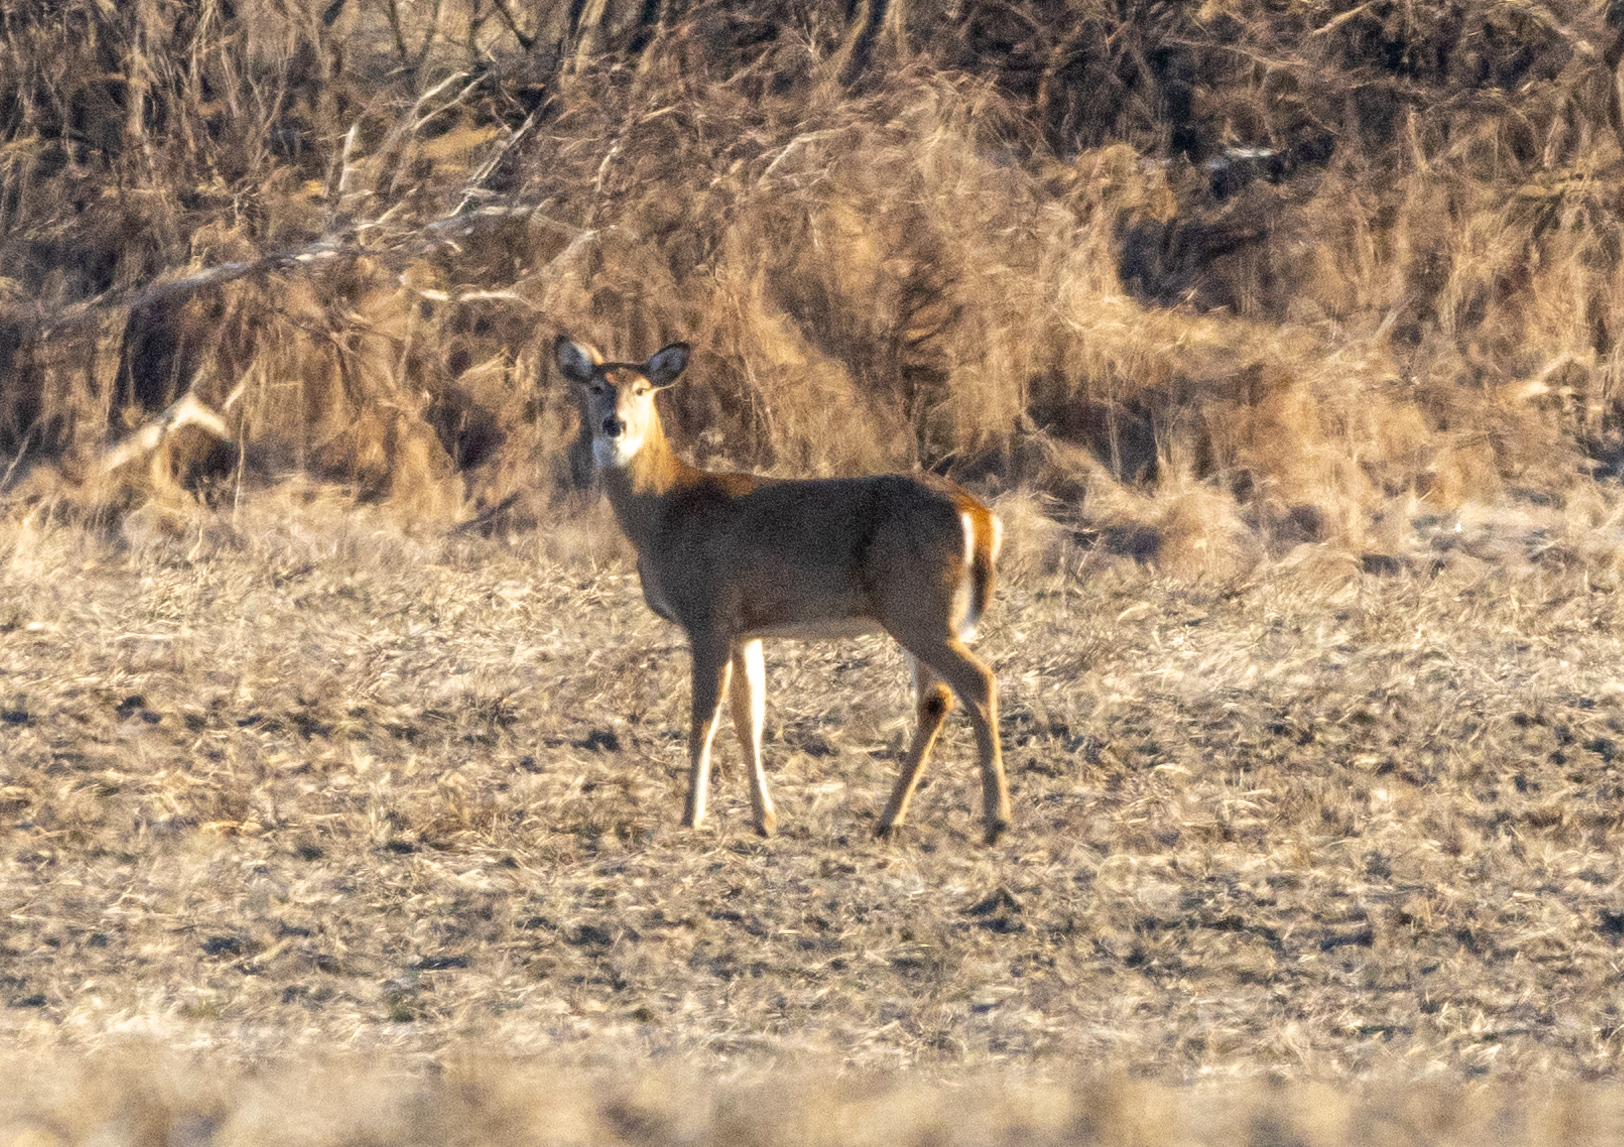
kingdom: Animalia
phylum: Chordata
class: Mammalia
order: Artiodactyla
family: Cervidae
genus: Odocoileus
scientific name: Odocoileus virginianus
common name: White-tailed deer
